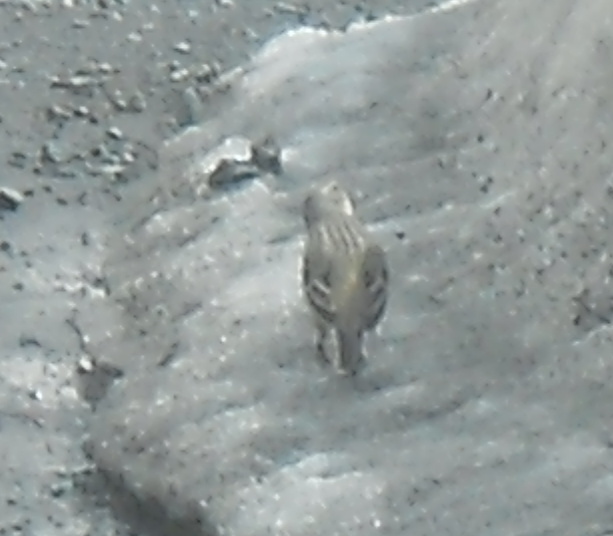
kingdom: Animalia
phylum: Chordata
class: Aves
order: Passeriformes
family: Motacillidae
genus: Anthus
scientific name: Anthus spinoletta
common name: Water pipit
